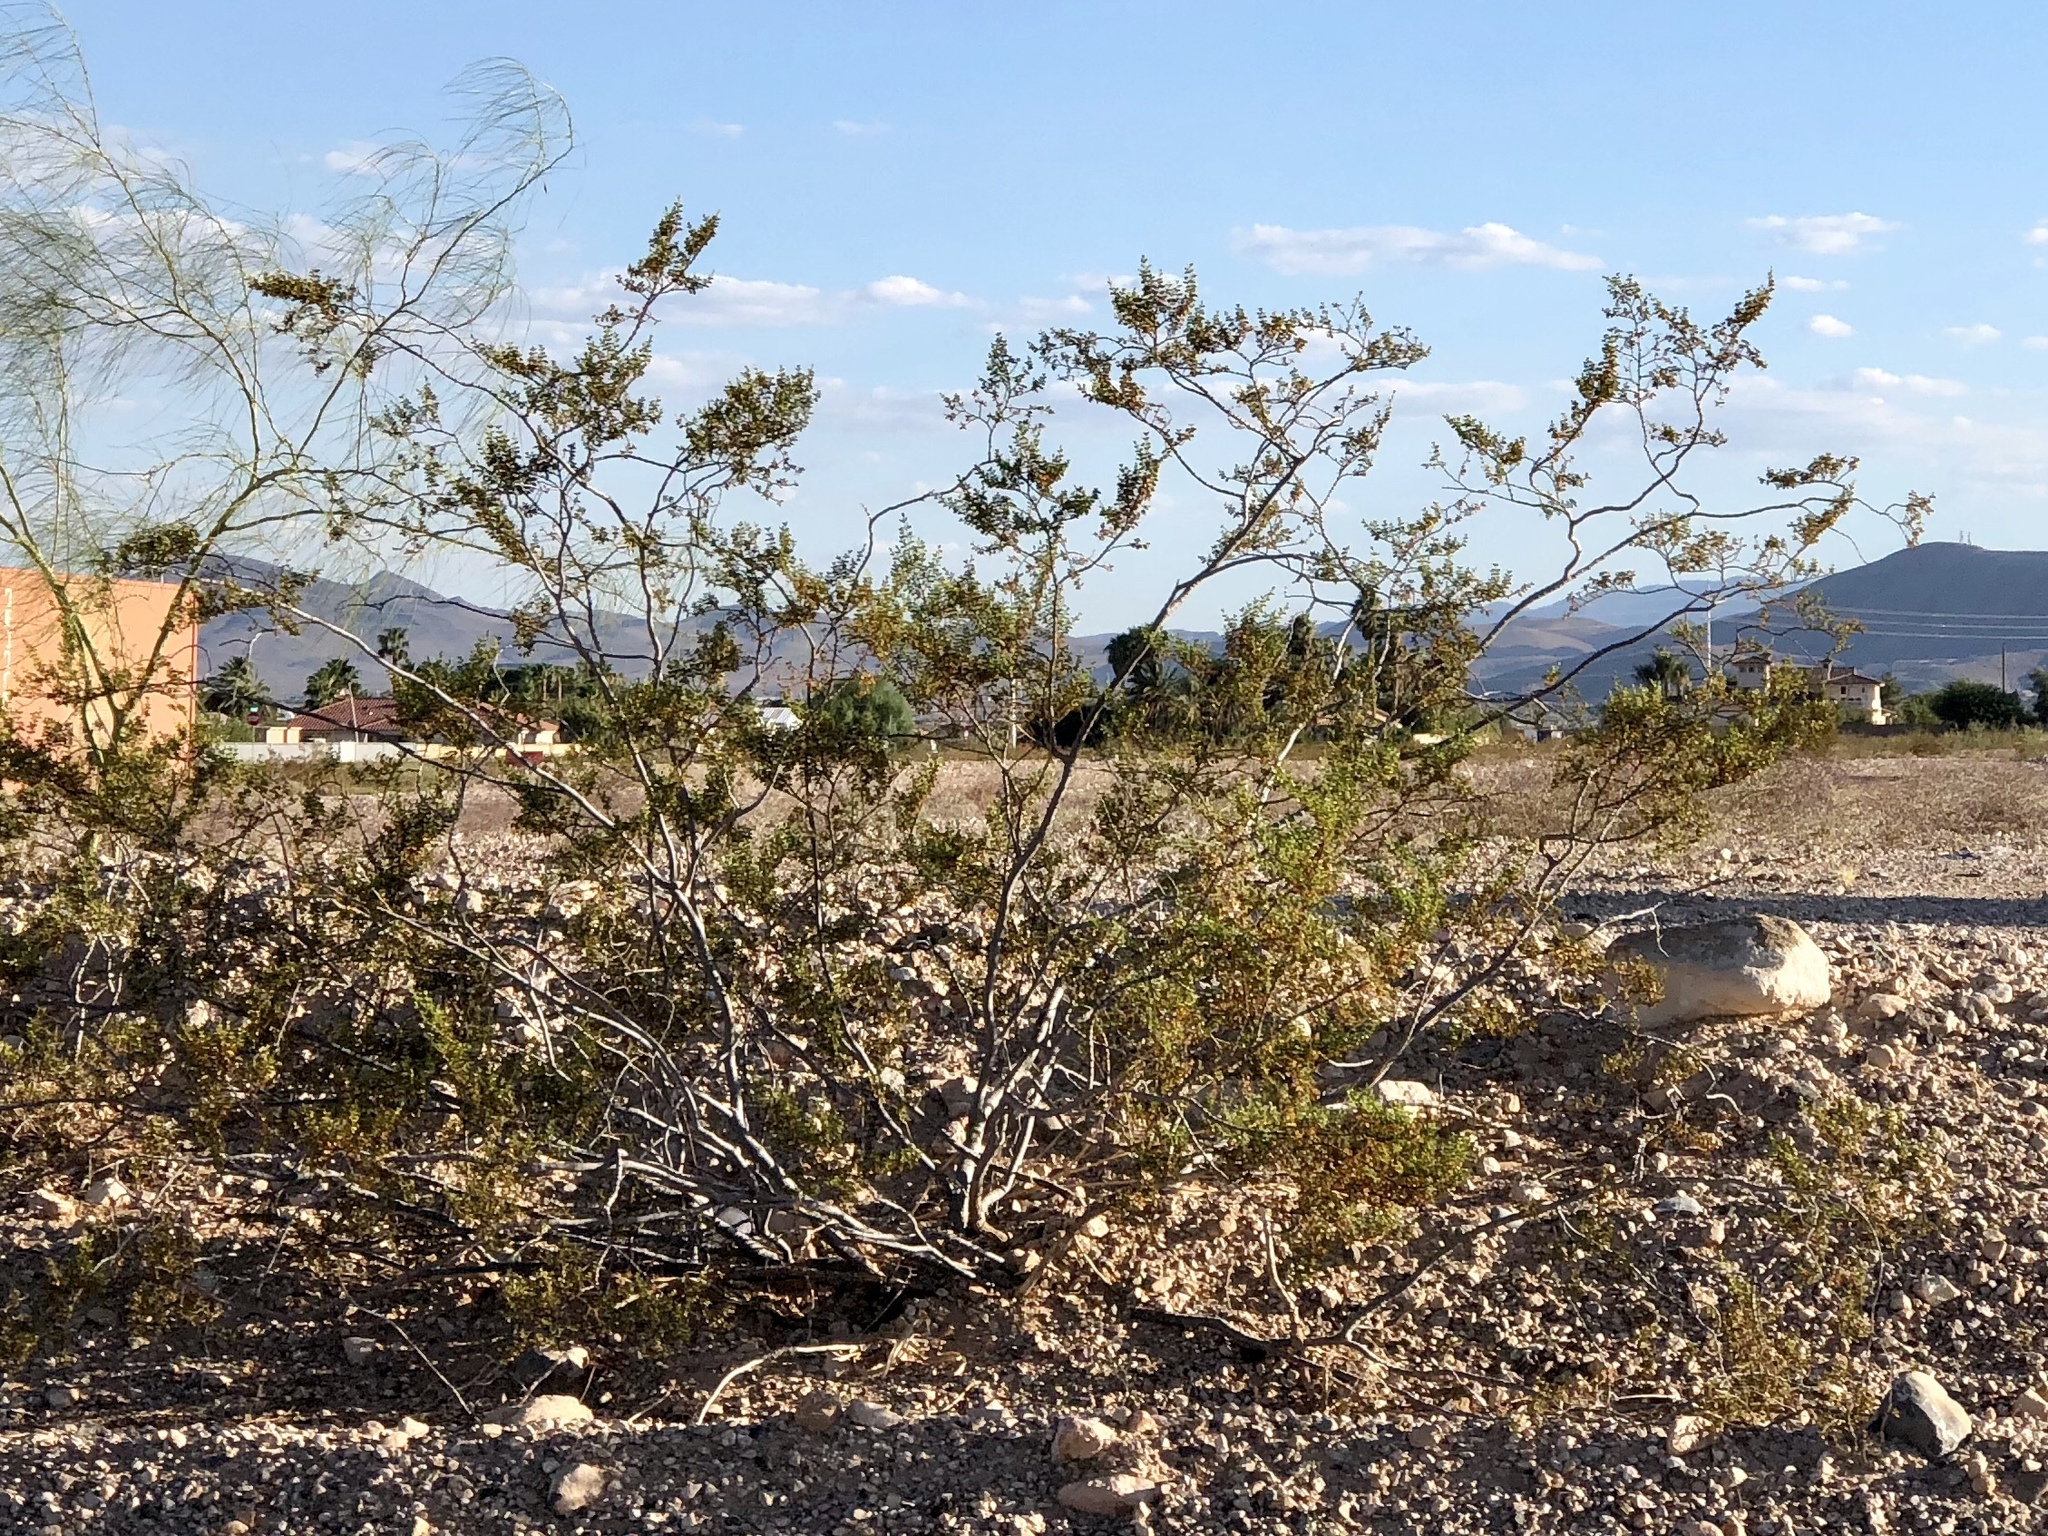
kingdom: Plantae
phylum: Tracheophyta
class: Magnoliopsida
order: Zygophyllales
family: Zygophyllaceae
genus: Larrea
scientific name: Larrea tridentata
